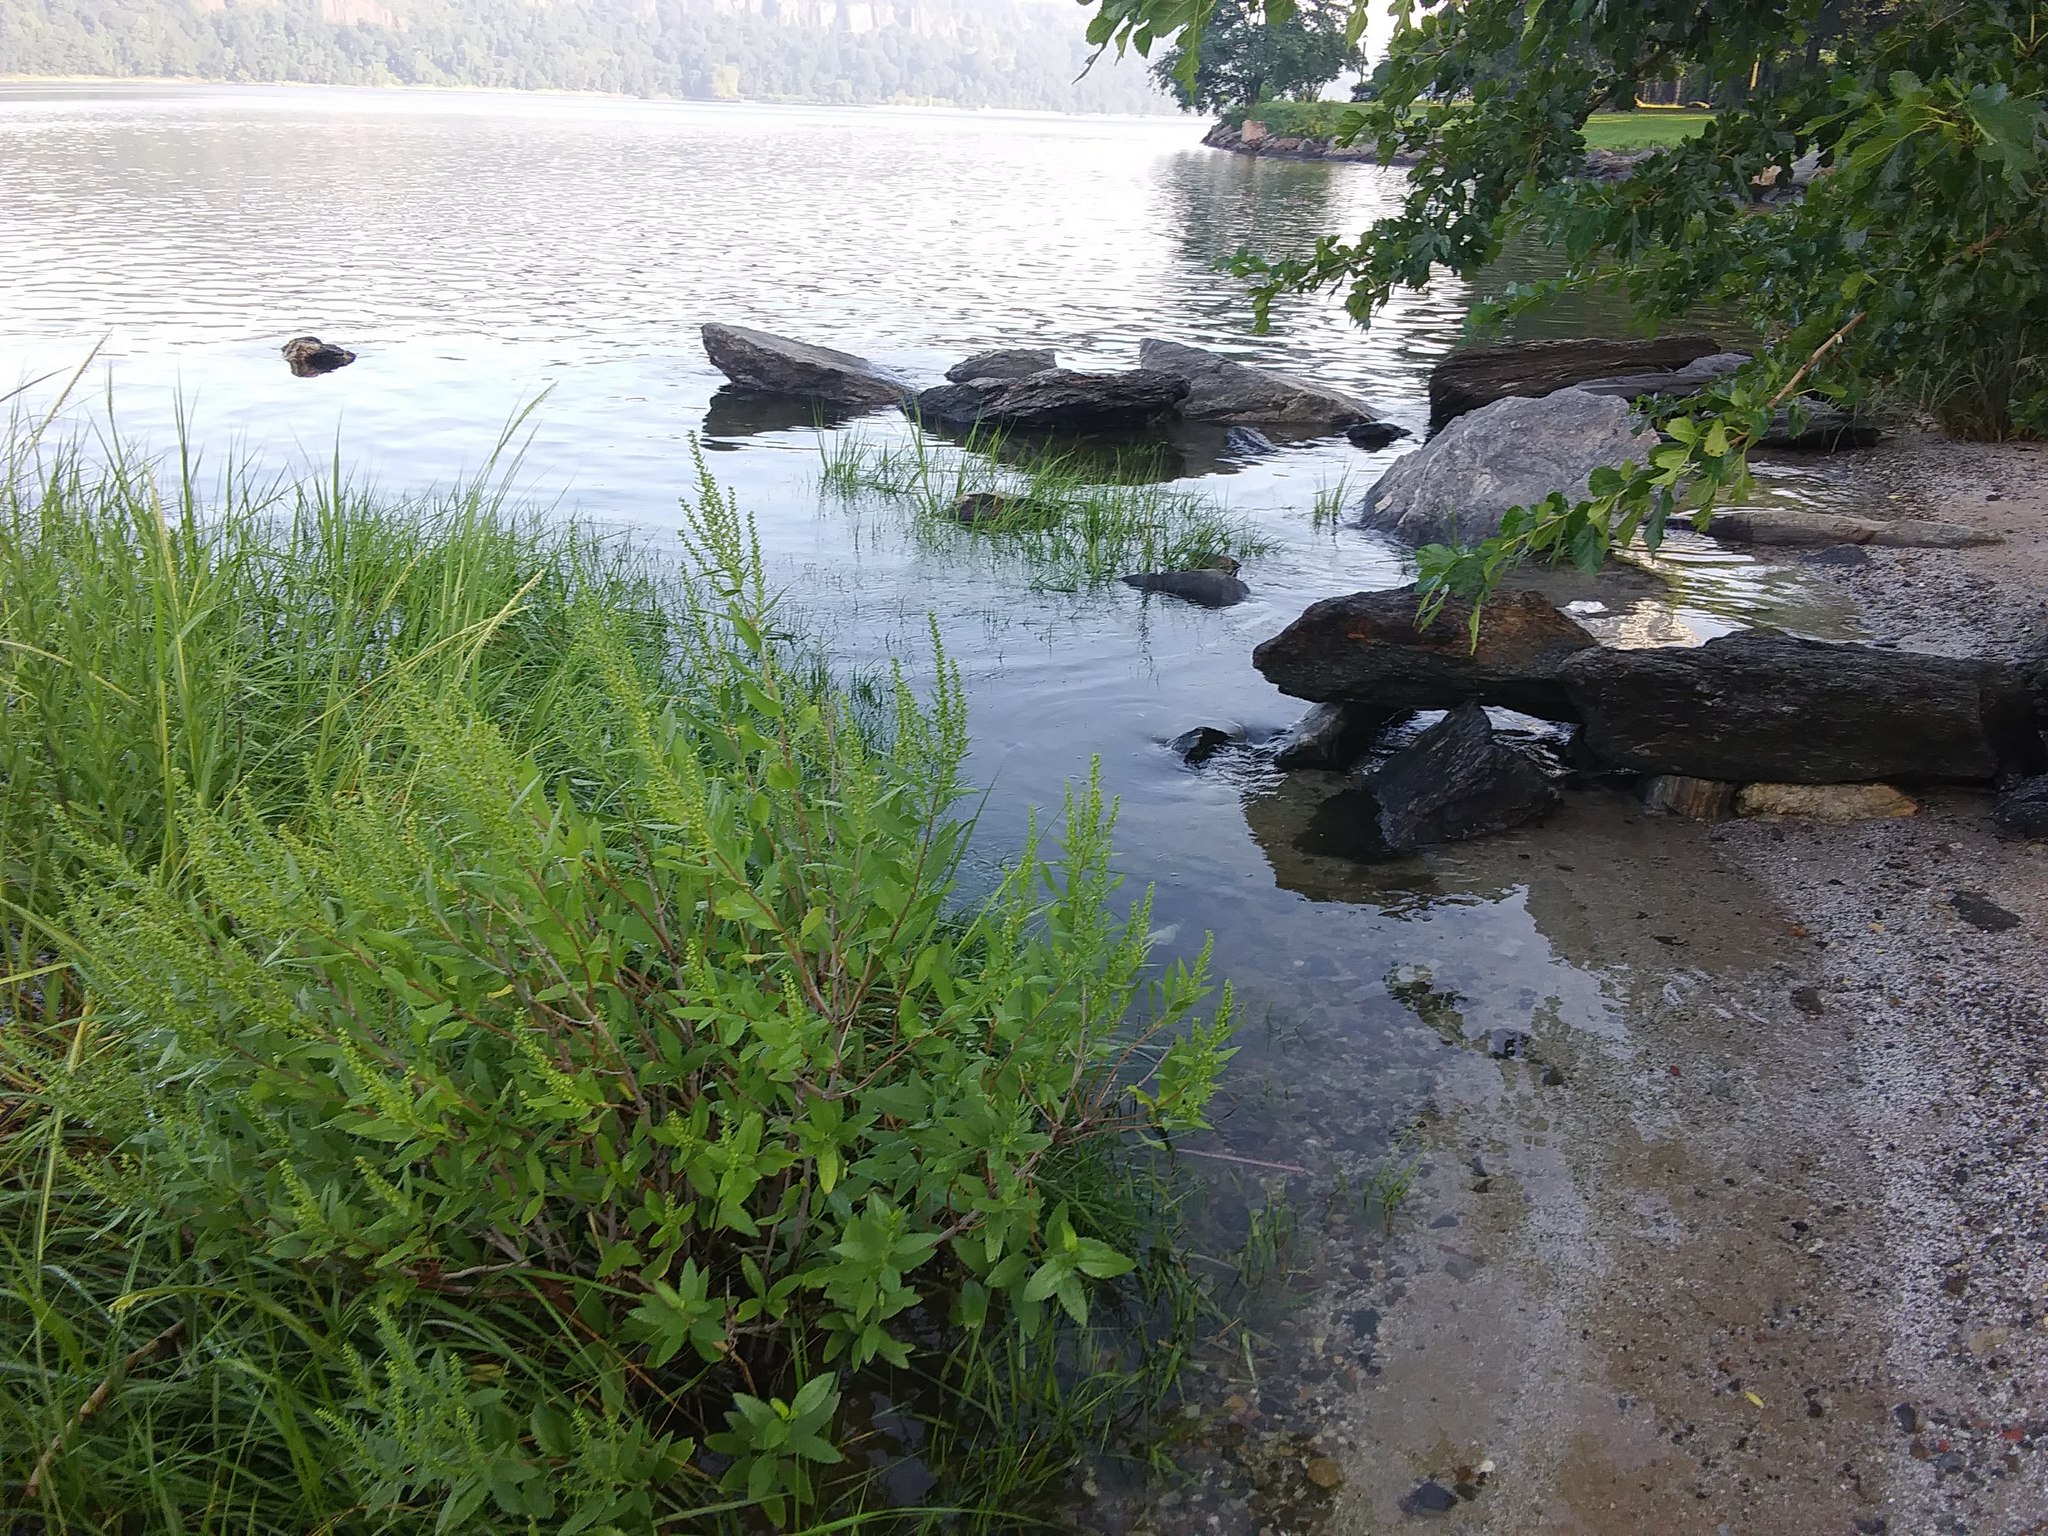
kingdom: Plantae
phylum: Tracheophyta
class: Magnoliopsida
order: Asterales
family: Asteraceae
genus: Iva
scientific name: Iva frutescens
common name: Big-leaved marsh-elder
